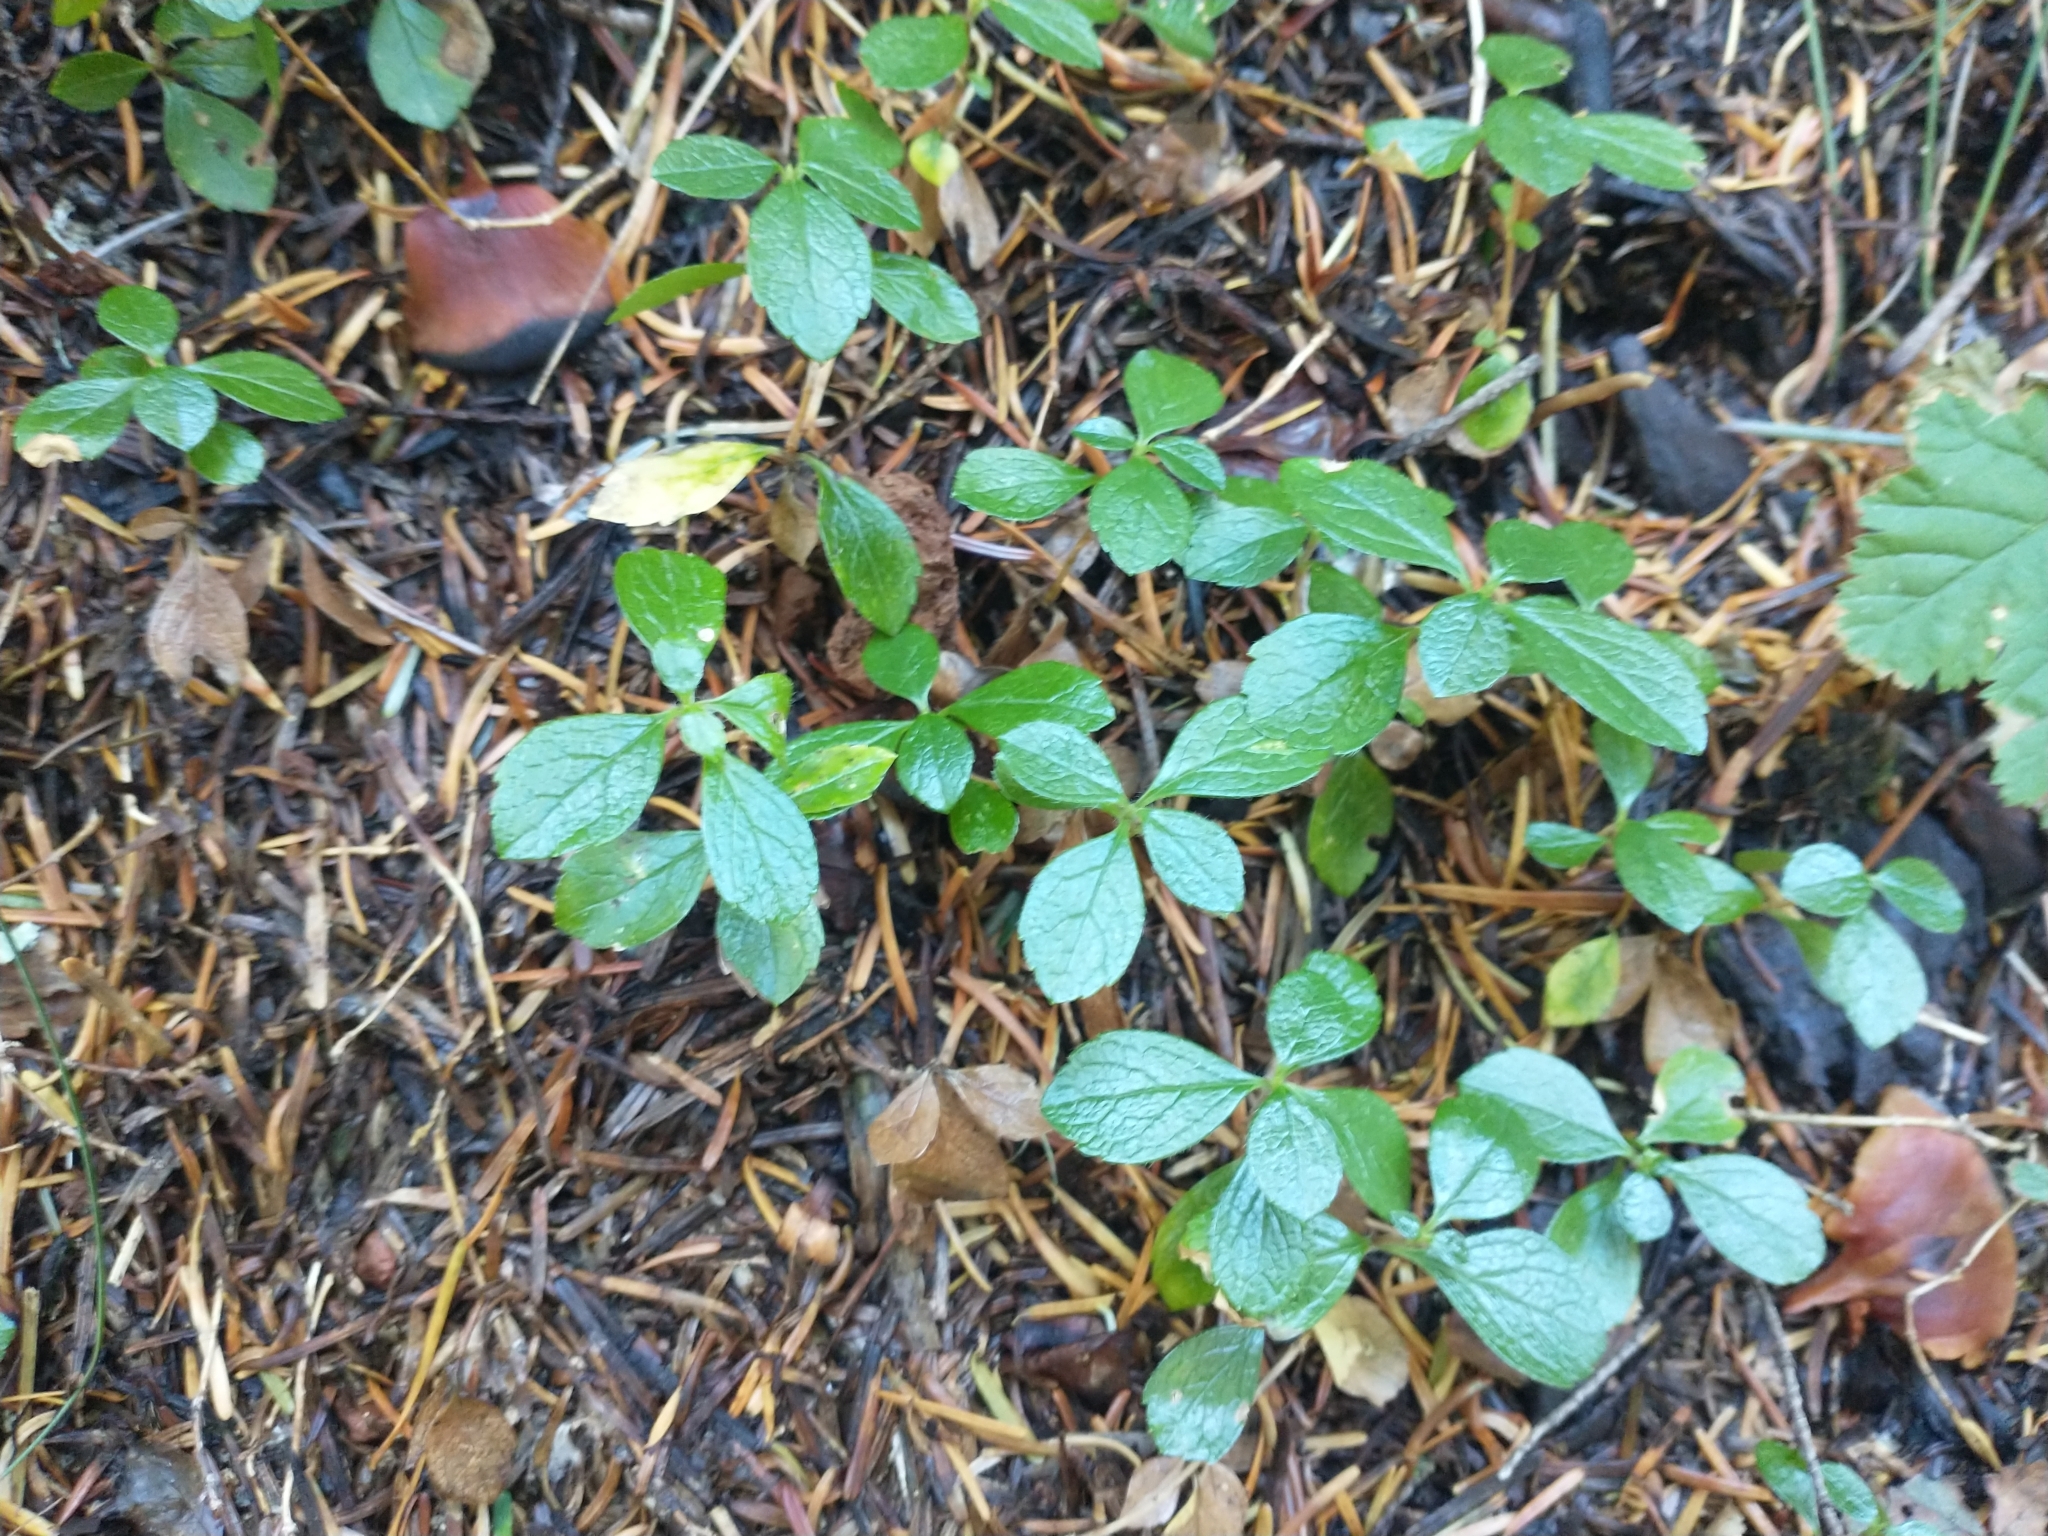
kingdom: Plantae
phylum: Tracheophyta
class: Magnoliopsida
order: Dipsacales
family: Caprifoliaceae
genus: Linnaea
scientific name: Linnaea borealis
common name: Twinflower
